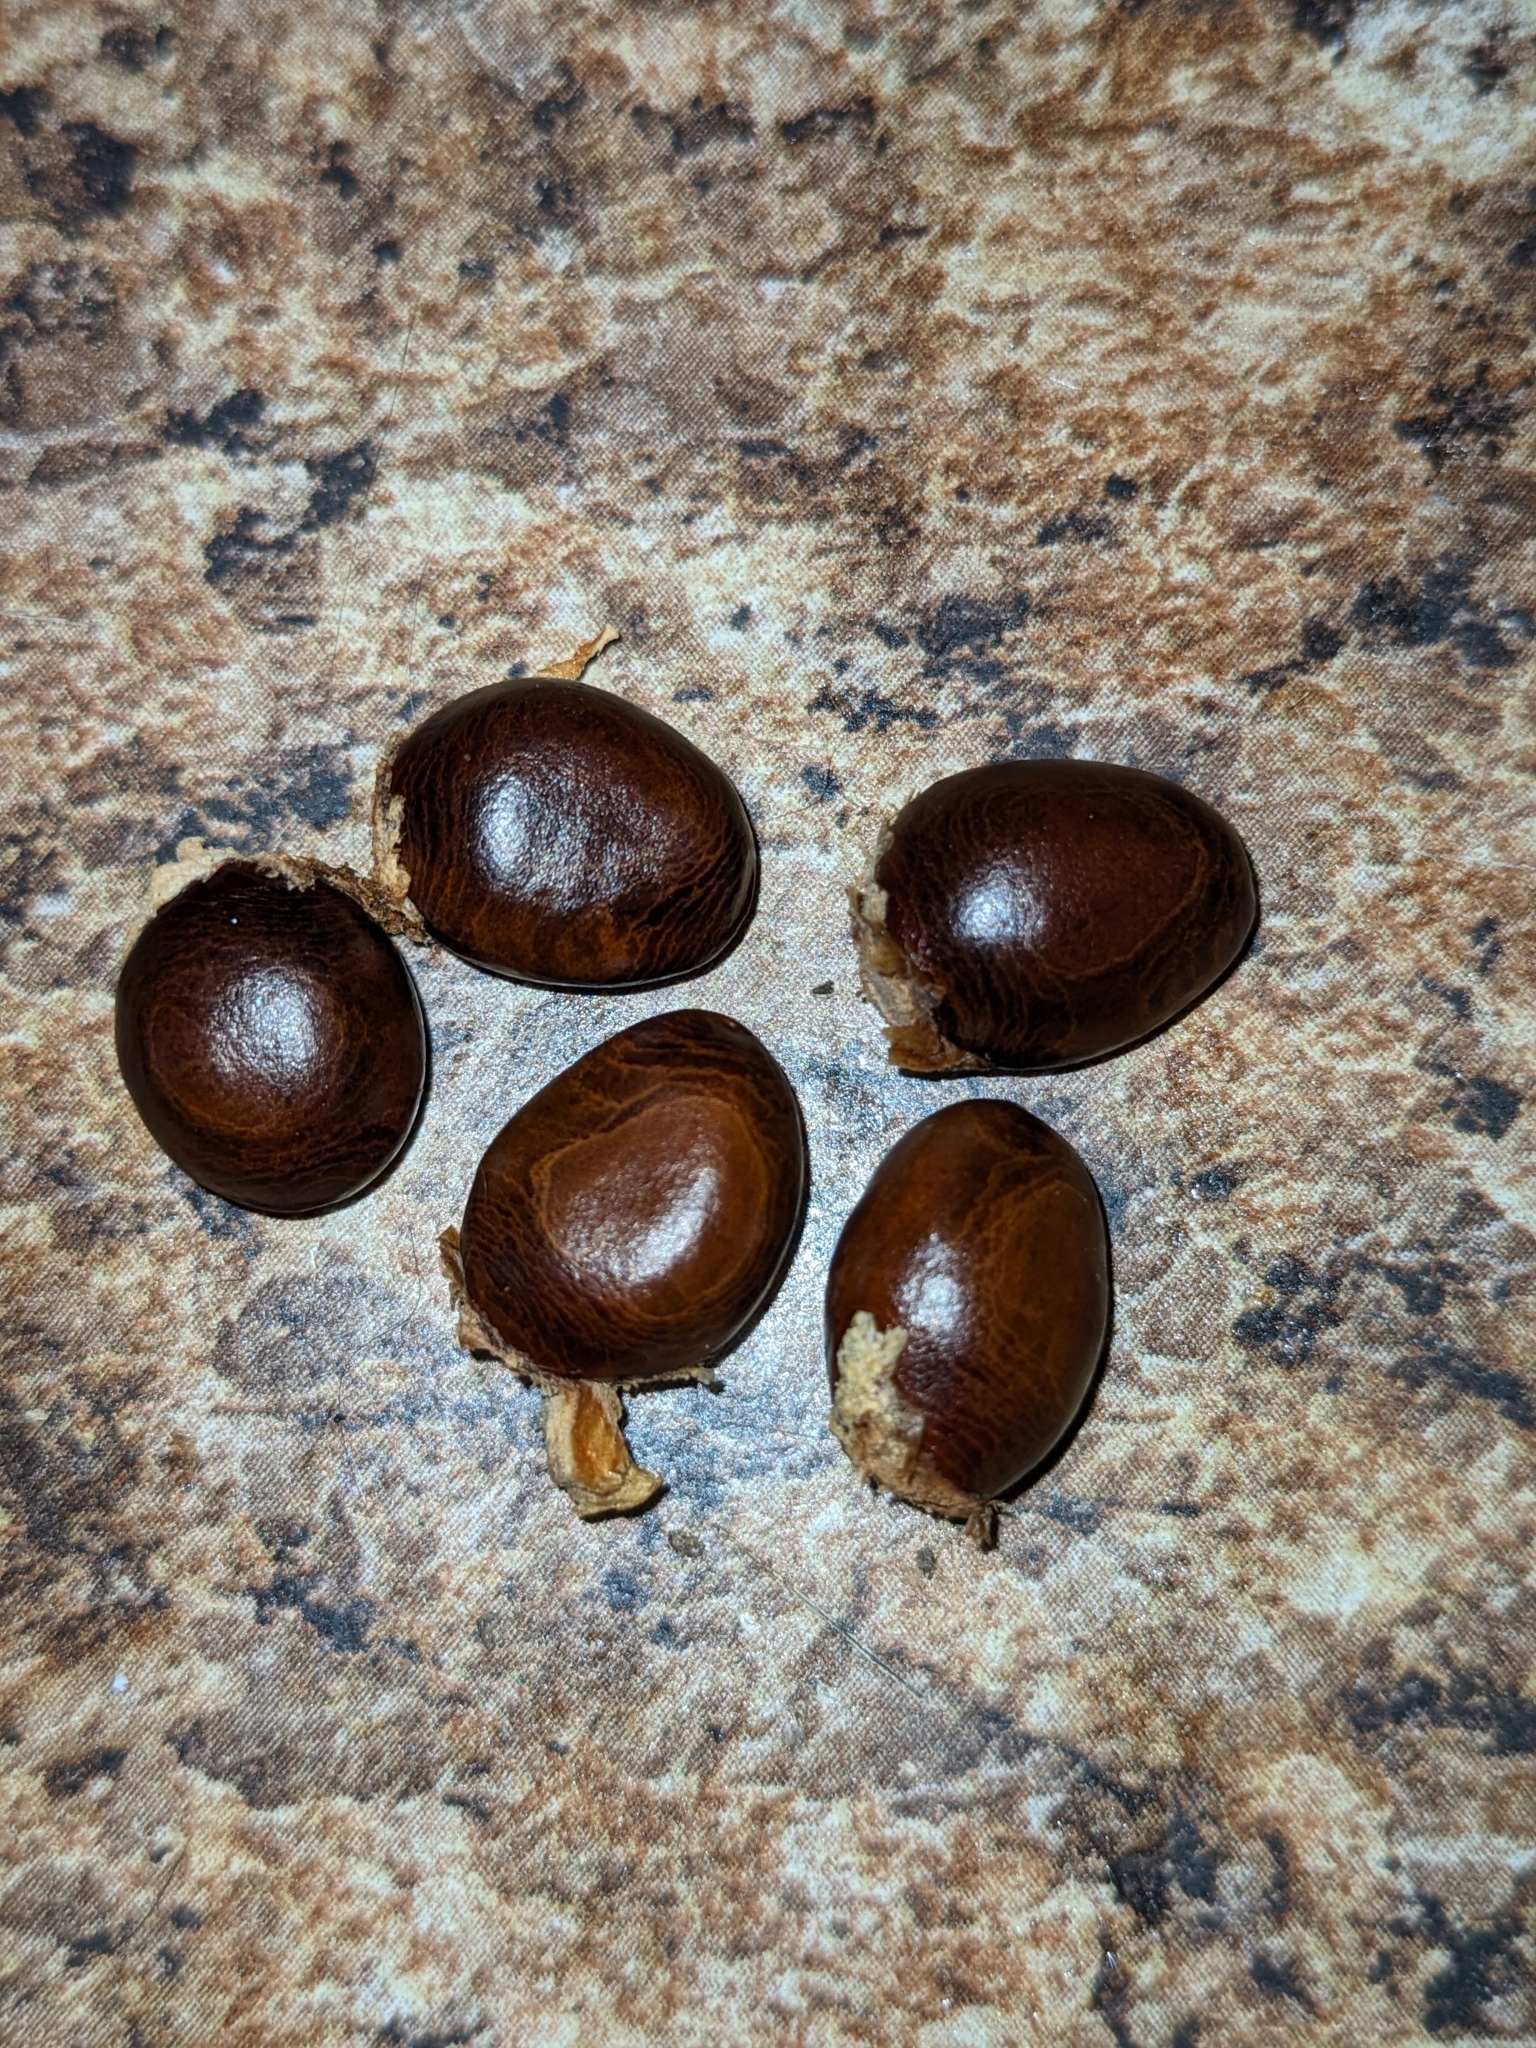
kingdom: Plantae
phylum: Tracheophyta
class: Magnoliopsida
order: Magnoliales
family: Annonaceae
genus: Asimina
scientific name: Asimina parviflora
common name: Dwarf pawpaw
